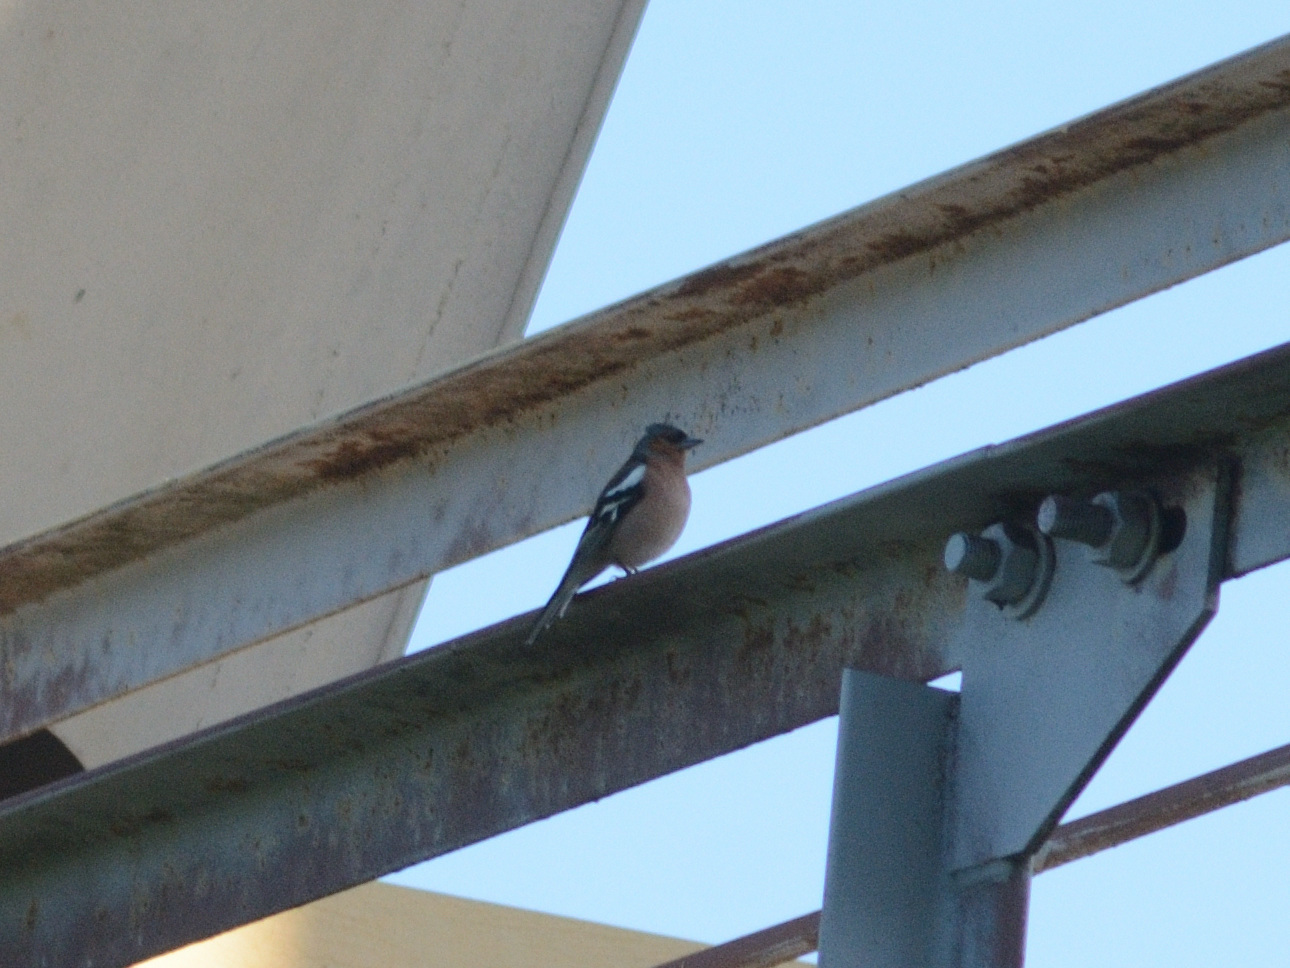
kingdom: Animalia
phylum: Chordata
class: Aves
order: Passeriformes
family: Fringillidae
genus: Fringilla
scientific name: Fringilla coelebs
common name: Common chaffinch
